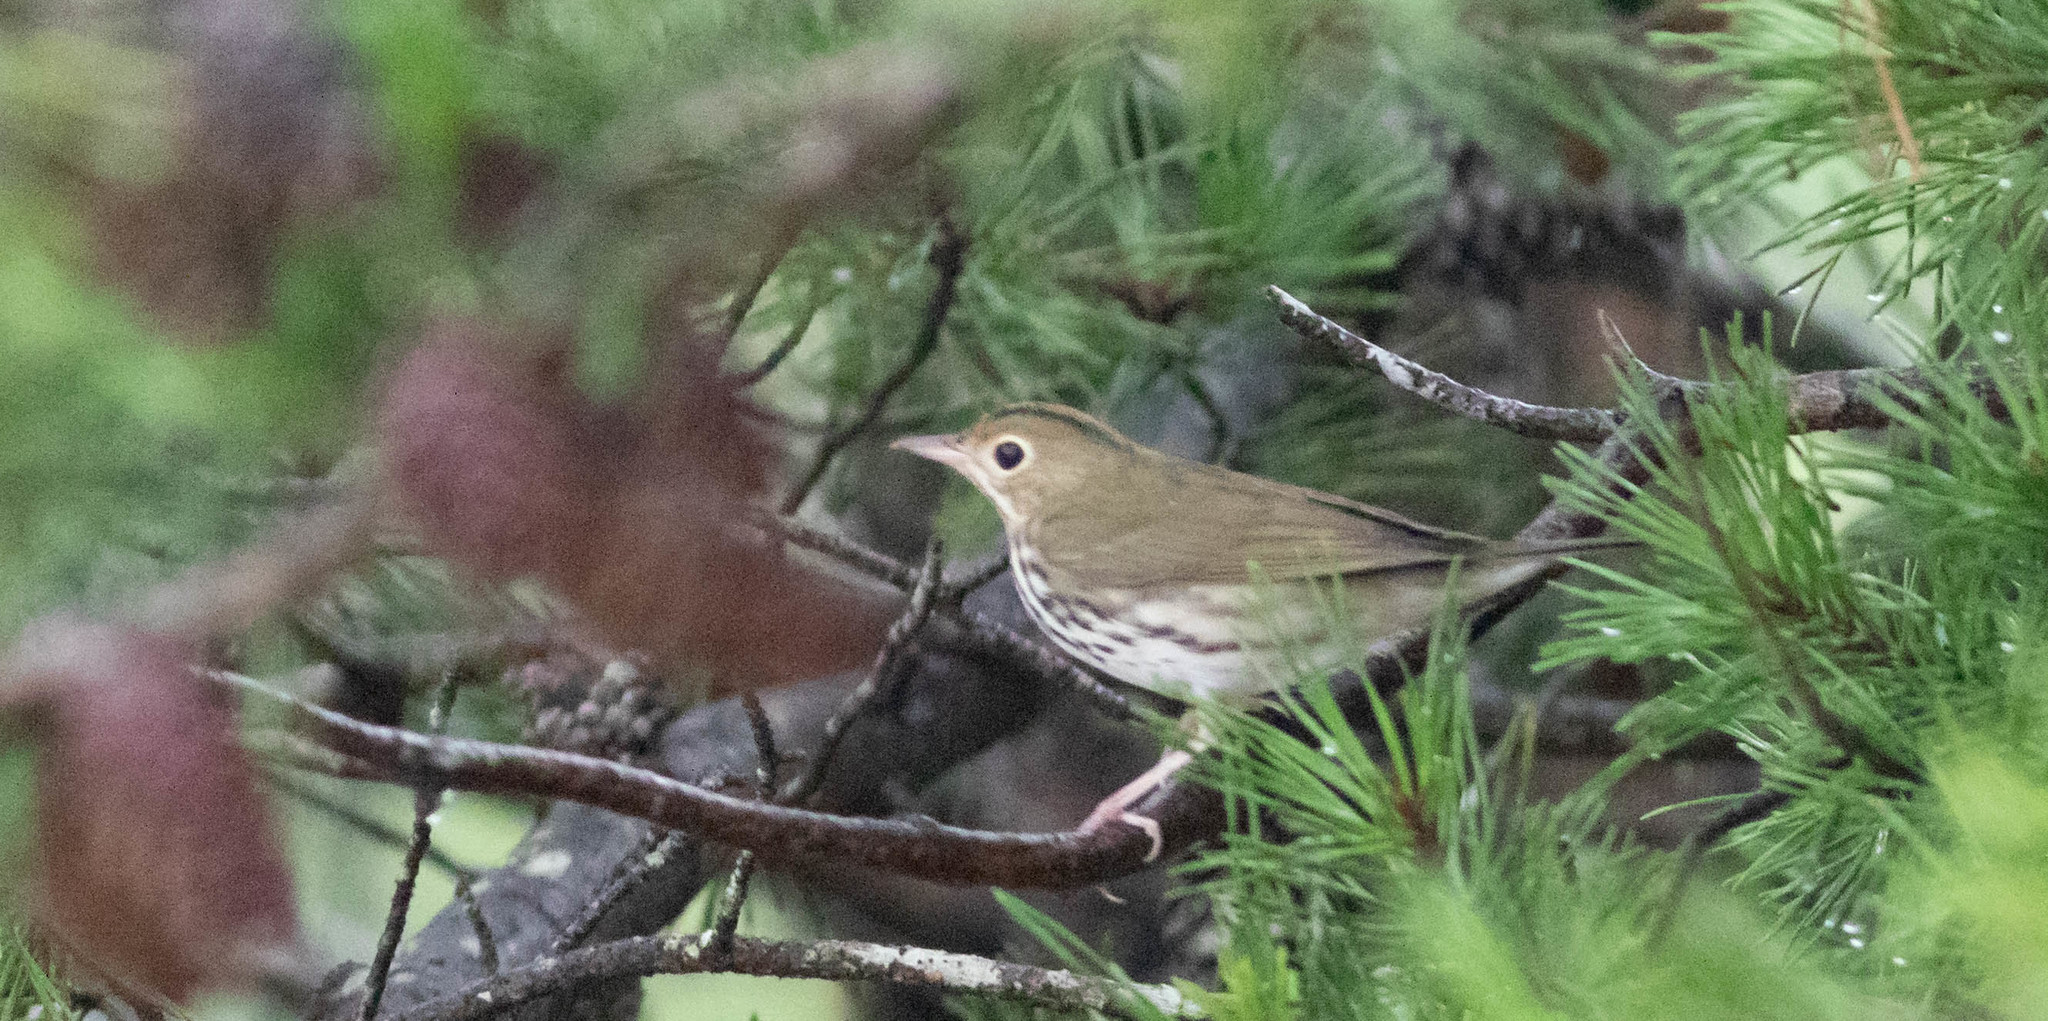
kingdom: Animalia
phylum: Chordata
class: Aves
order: Passeriformes
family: Parulidae
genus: Seiurus
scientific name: Seiurus aurocapilla
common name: Ovenbird
